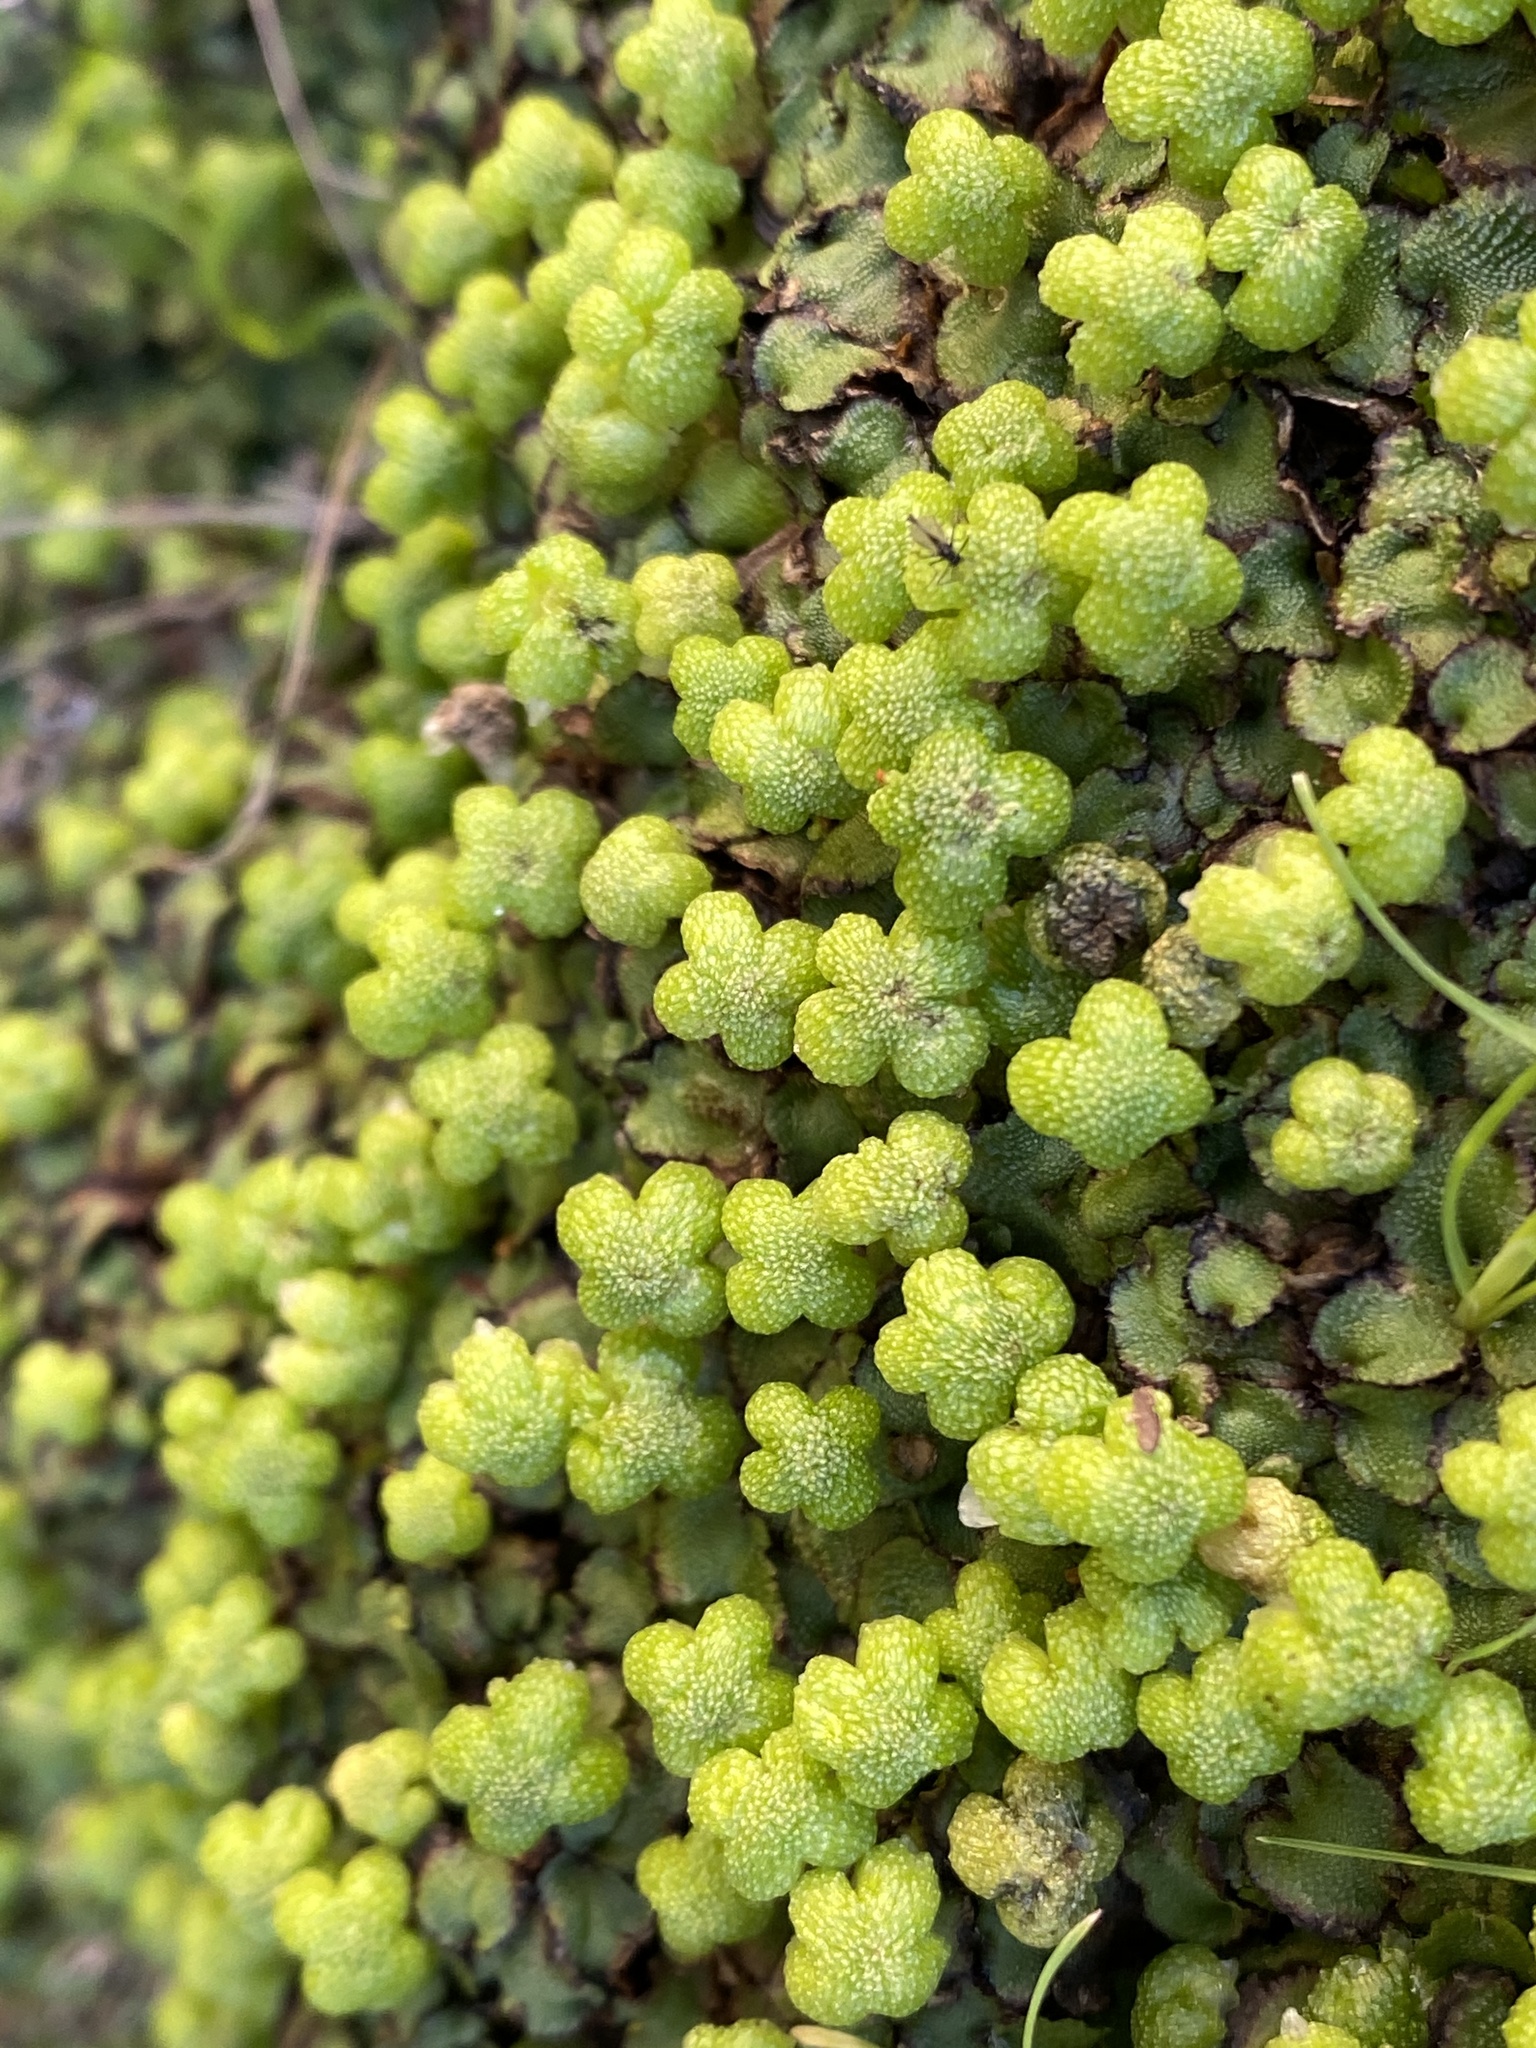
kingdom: Plantae
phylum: Marchantiophyta
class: Marchantiopsida
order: Marchantiales
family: Aytoniaceae
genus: Asterella
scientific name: Asterella californica
